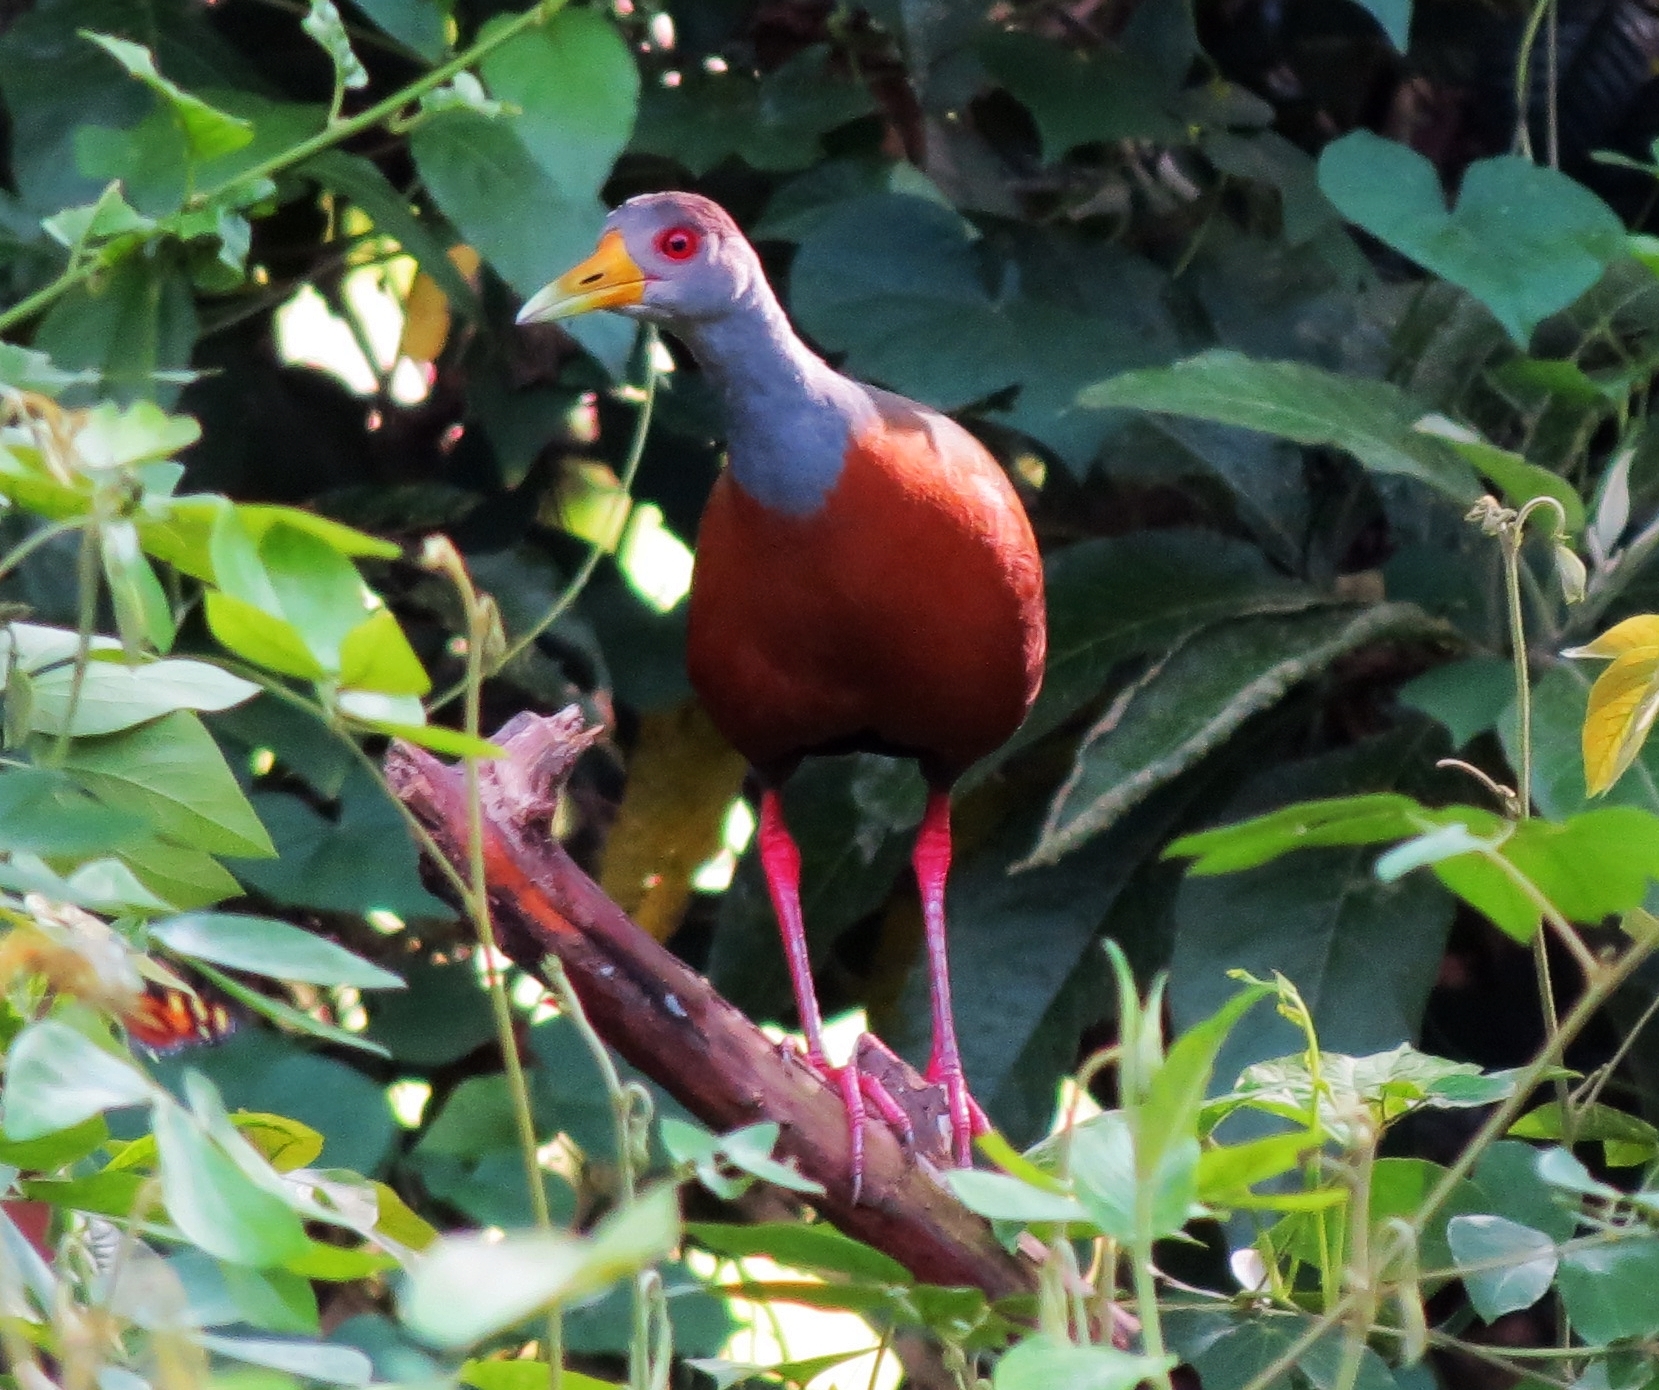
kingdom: Animalia
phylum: Chordata
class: Aves
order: Gruiformes
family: Rallidae
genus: Aramides
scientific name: Aramides cajanea
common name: Gray-necked wood-rail
